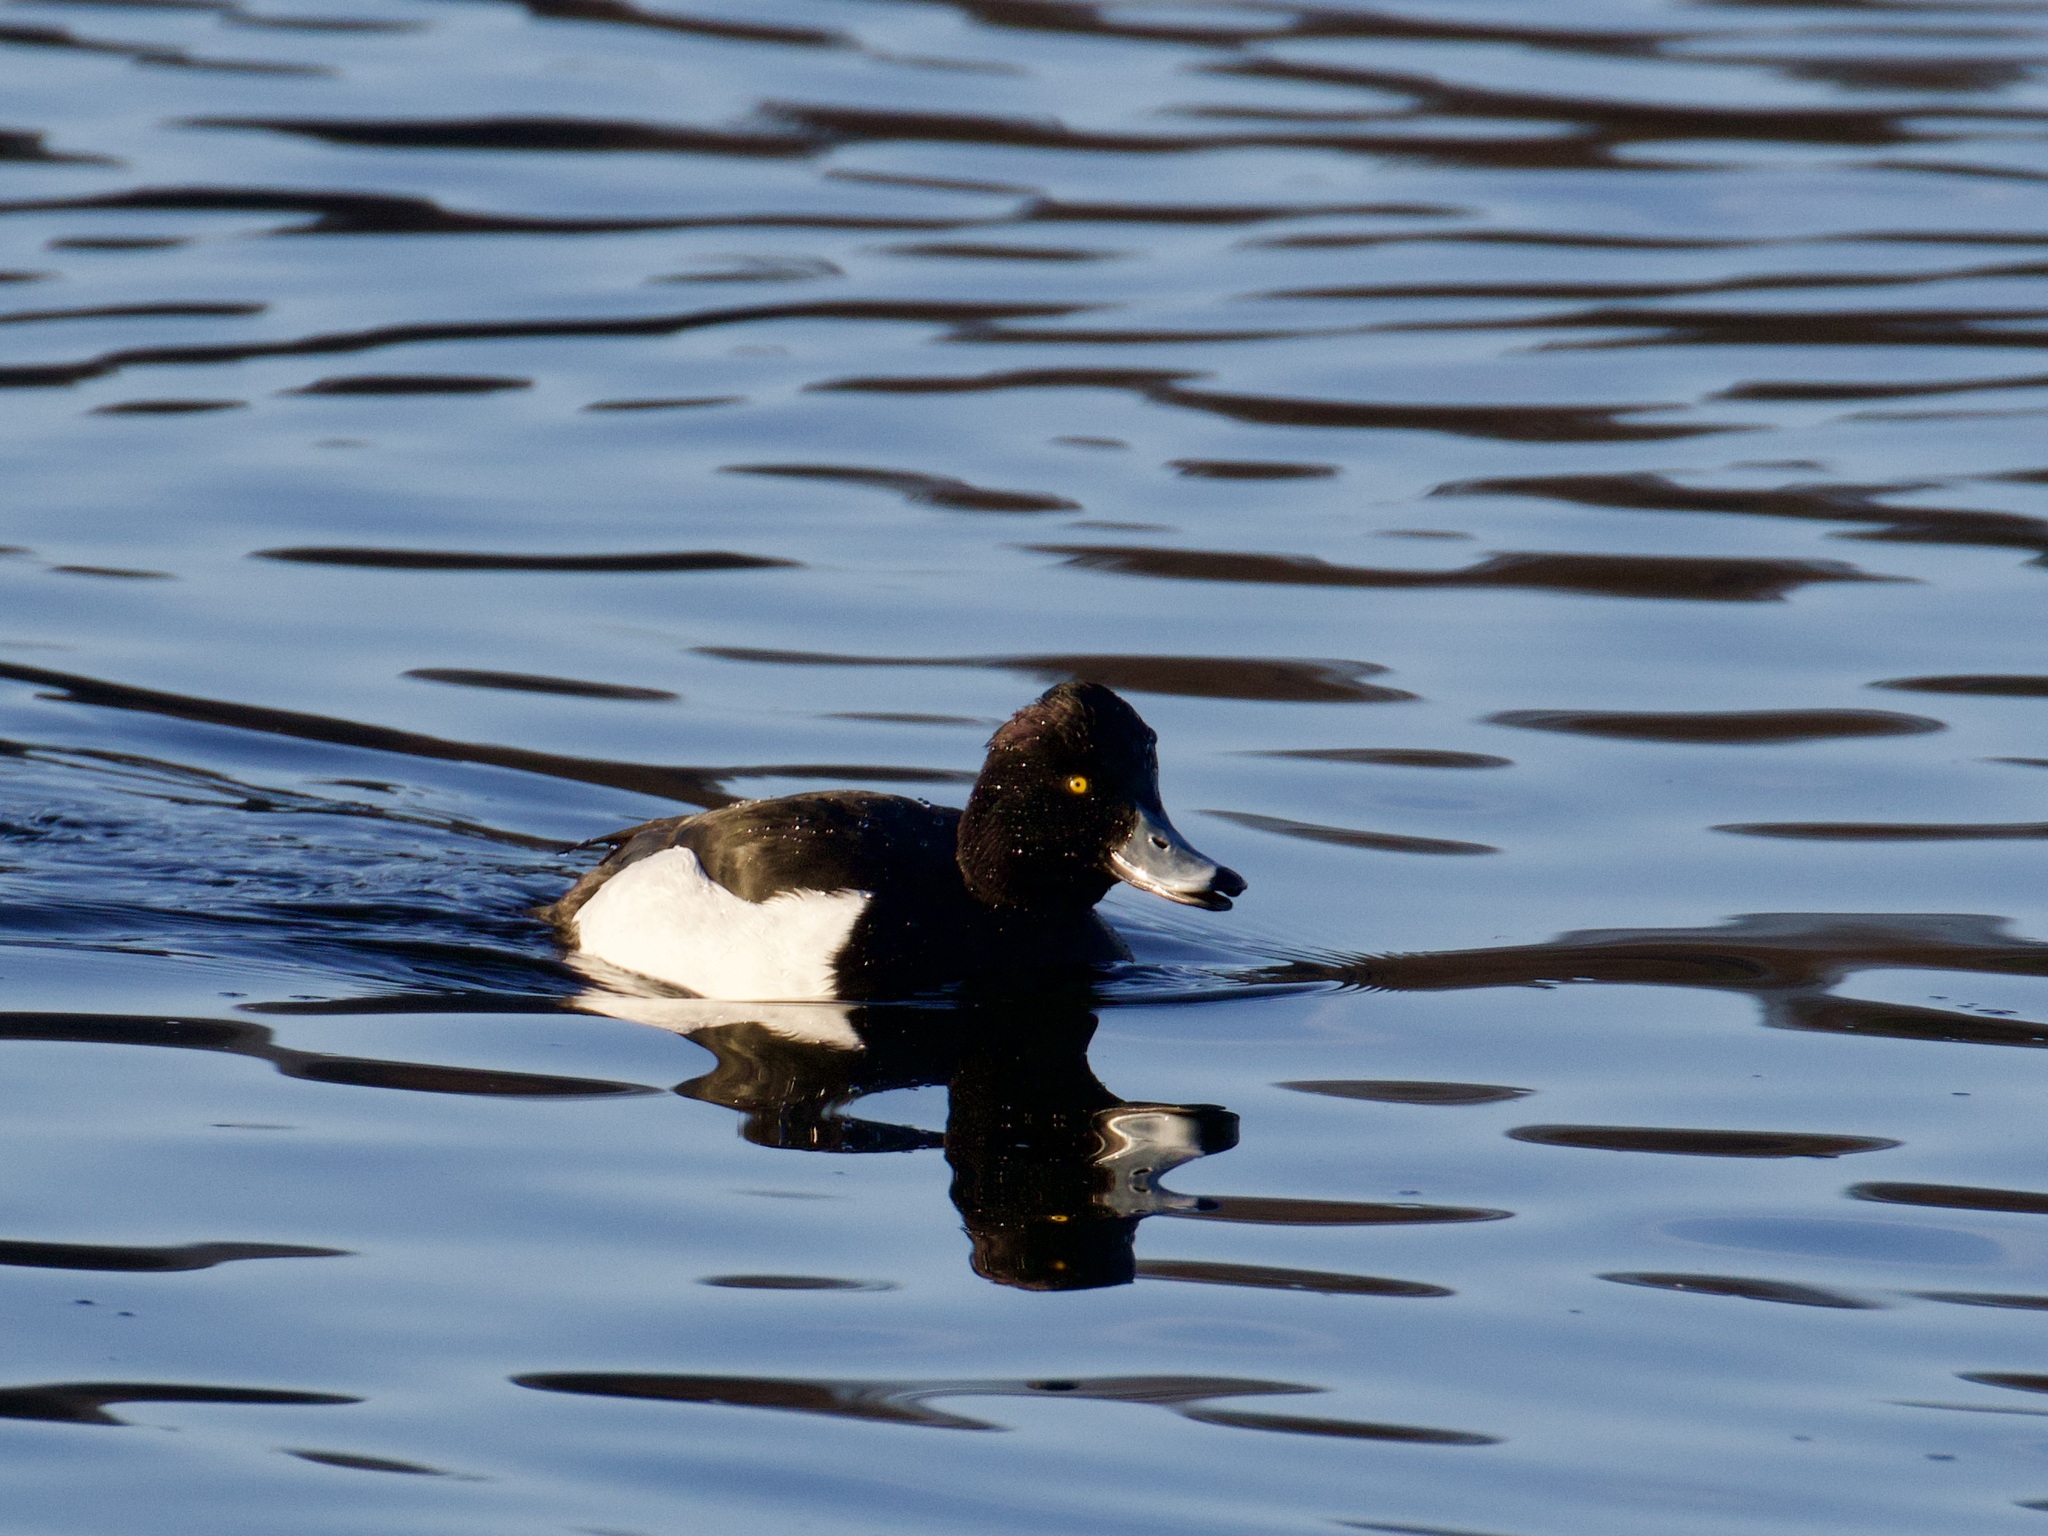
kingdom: Animalia
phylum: Chordata
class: Aves
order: Anseriformes
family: Anatidae
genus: Aythya
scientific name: Aythya fuligula
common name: Tufted duck
